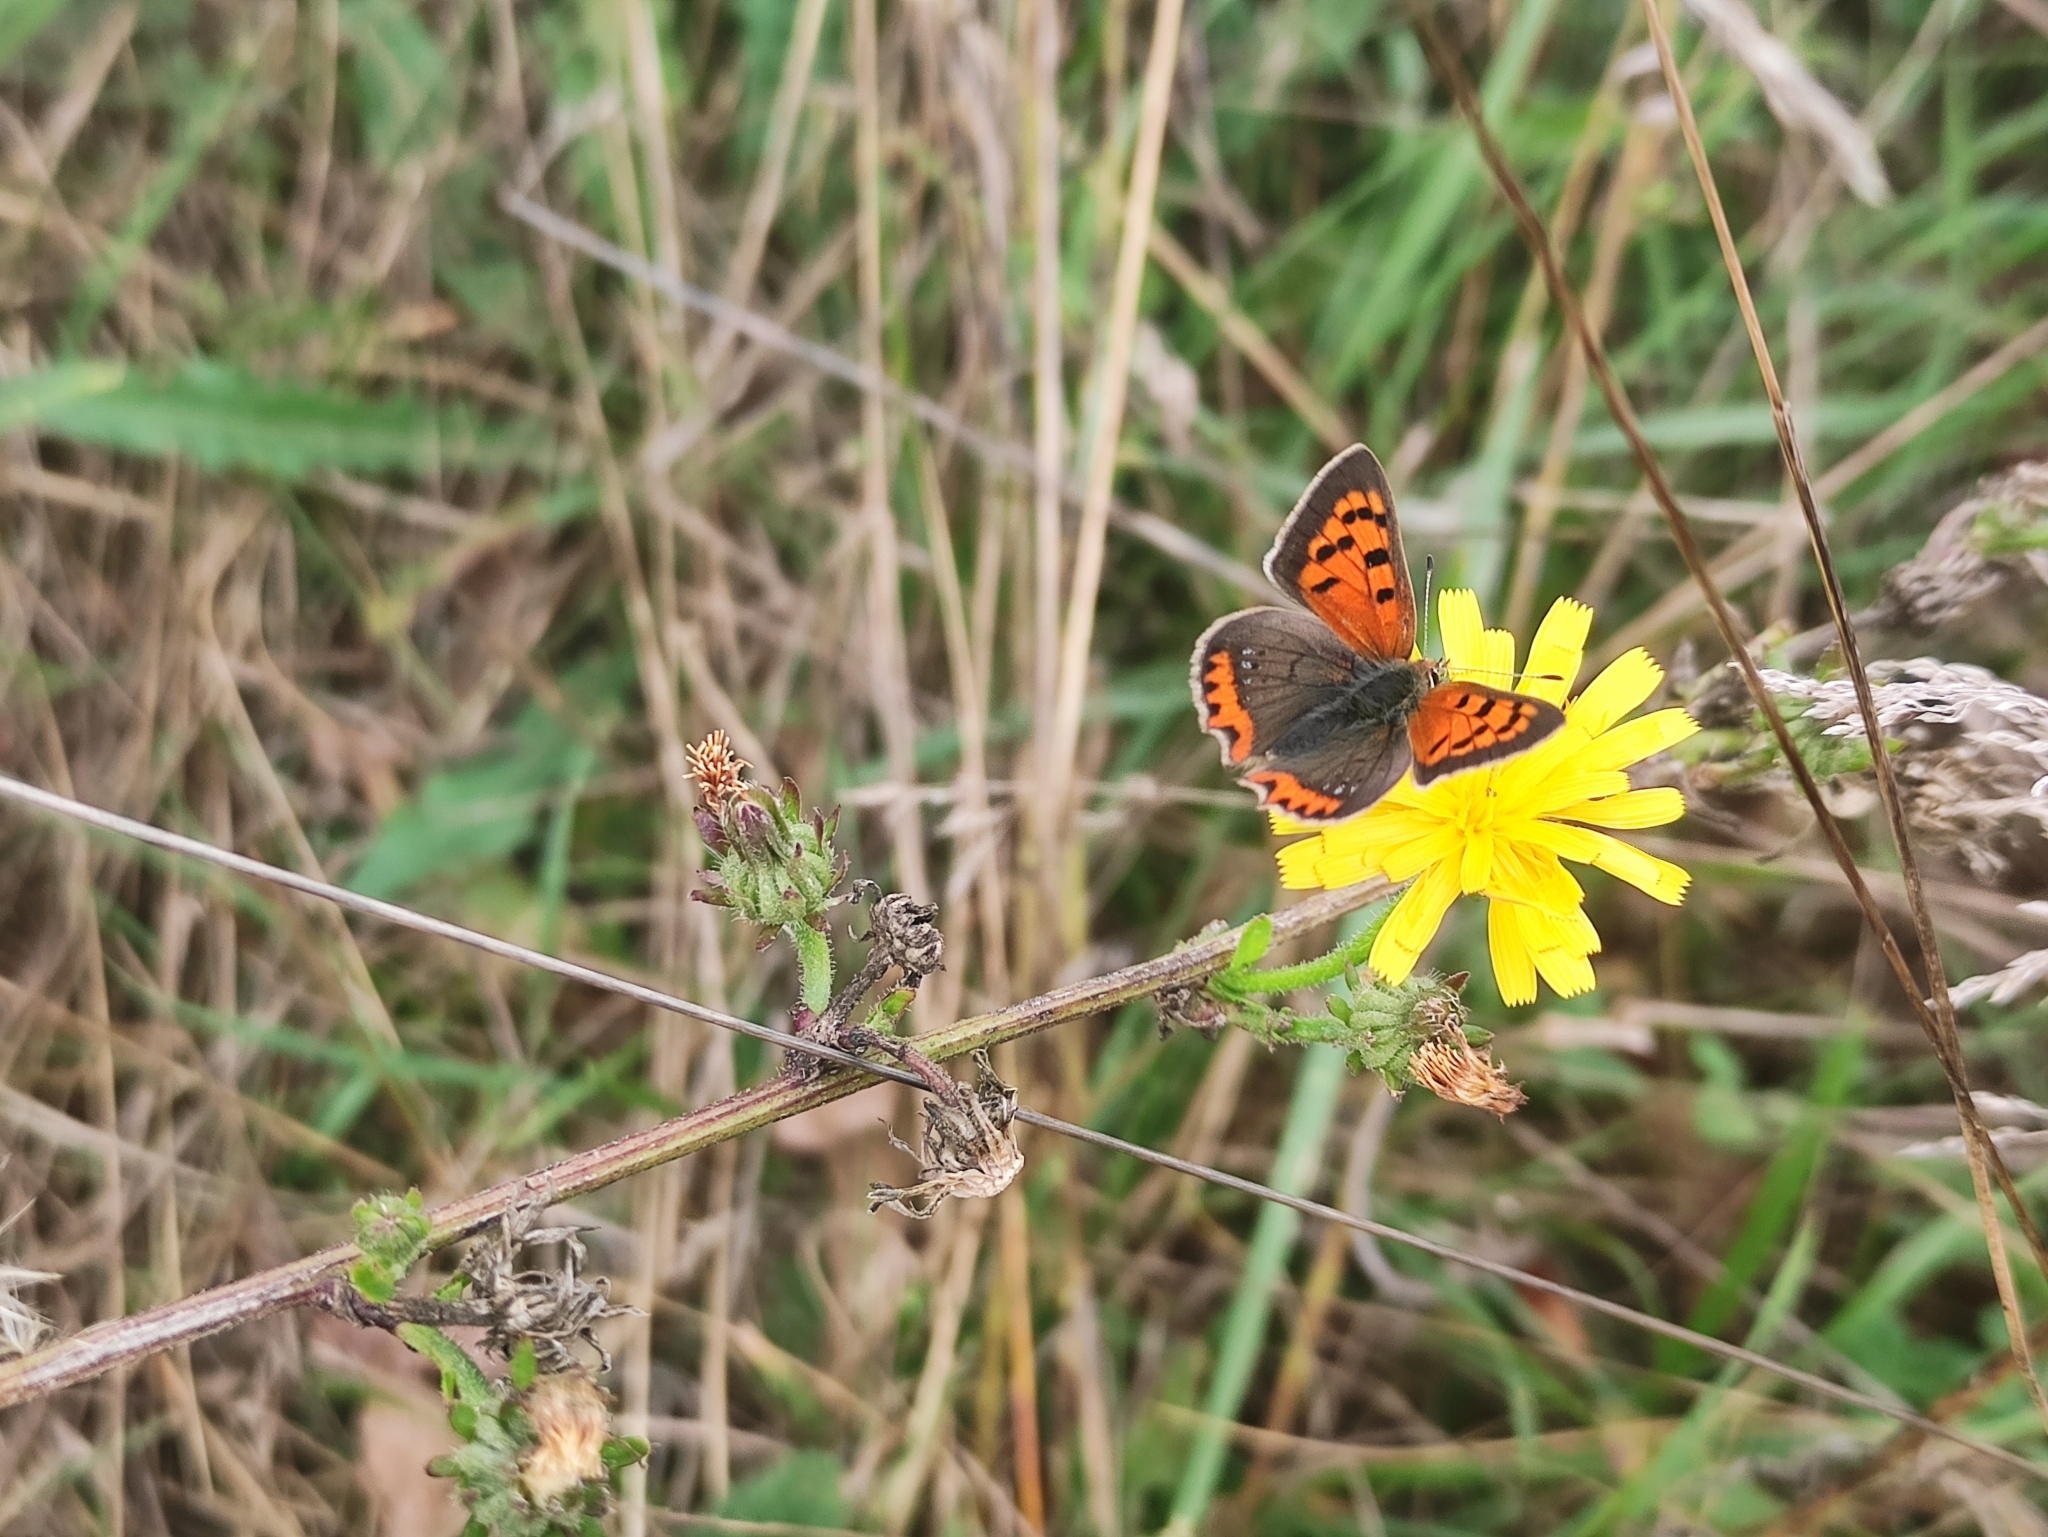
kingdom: Animalia
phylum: Arthropoda
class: Insecta
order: Lepidoptera
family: Lycaenidae
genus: Lycaena
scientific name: Lycaena phlaeas
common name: Small copper
